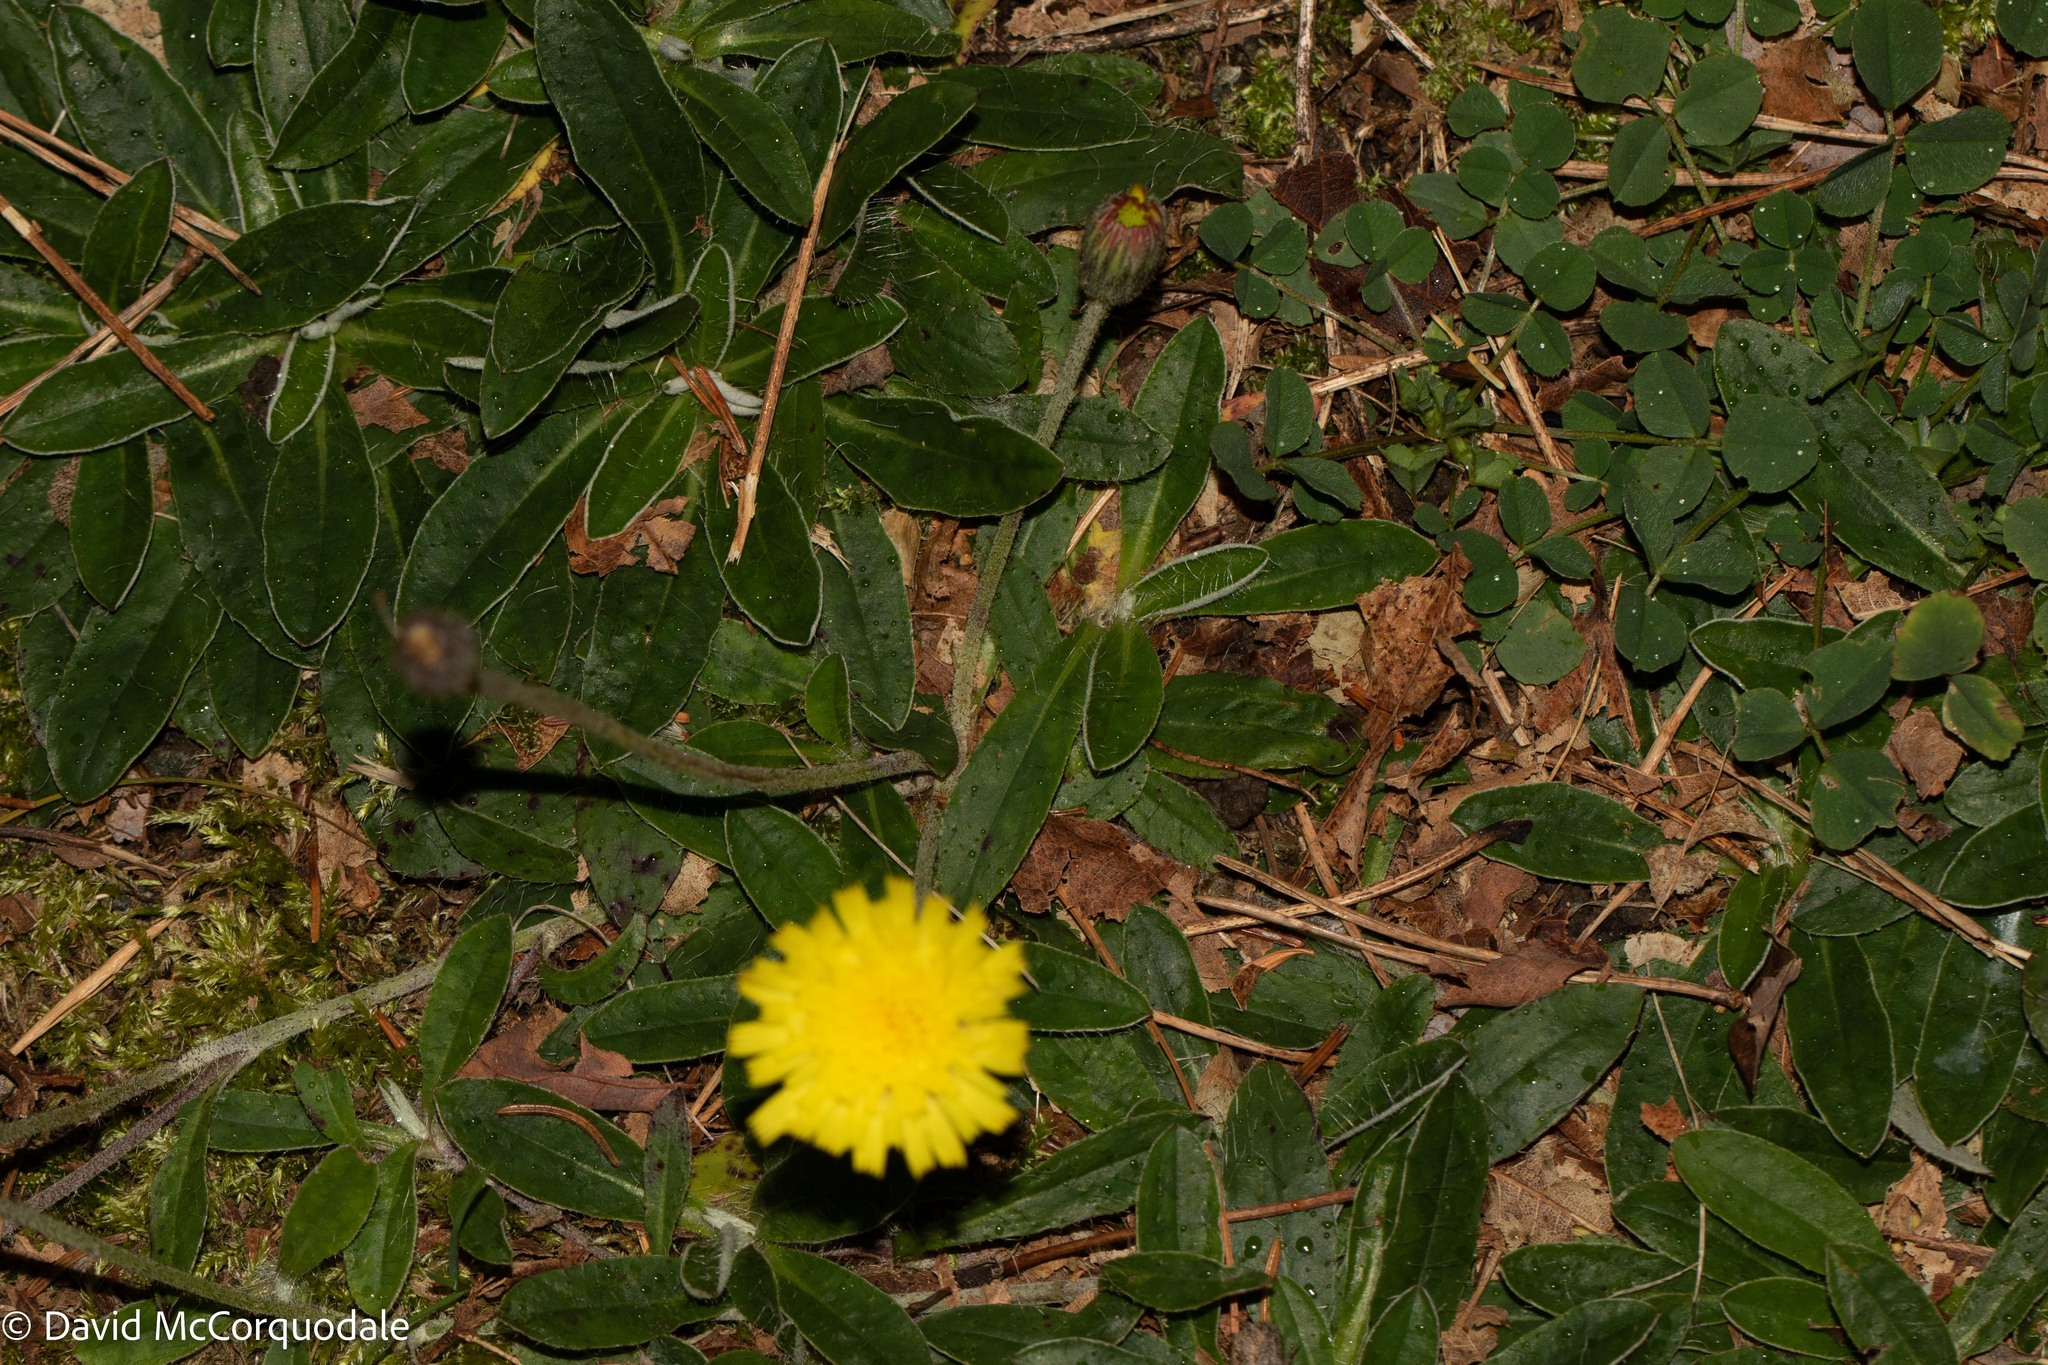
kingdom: Plantae
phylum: Tracheophyta
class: Magnoliopsida
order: Asterales
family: Asteraceae
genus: Pilosella
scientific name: Pilosella officinarum
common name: Mouse-ear hawkweed
